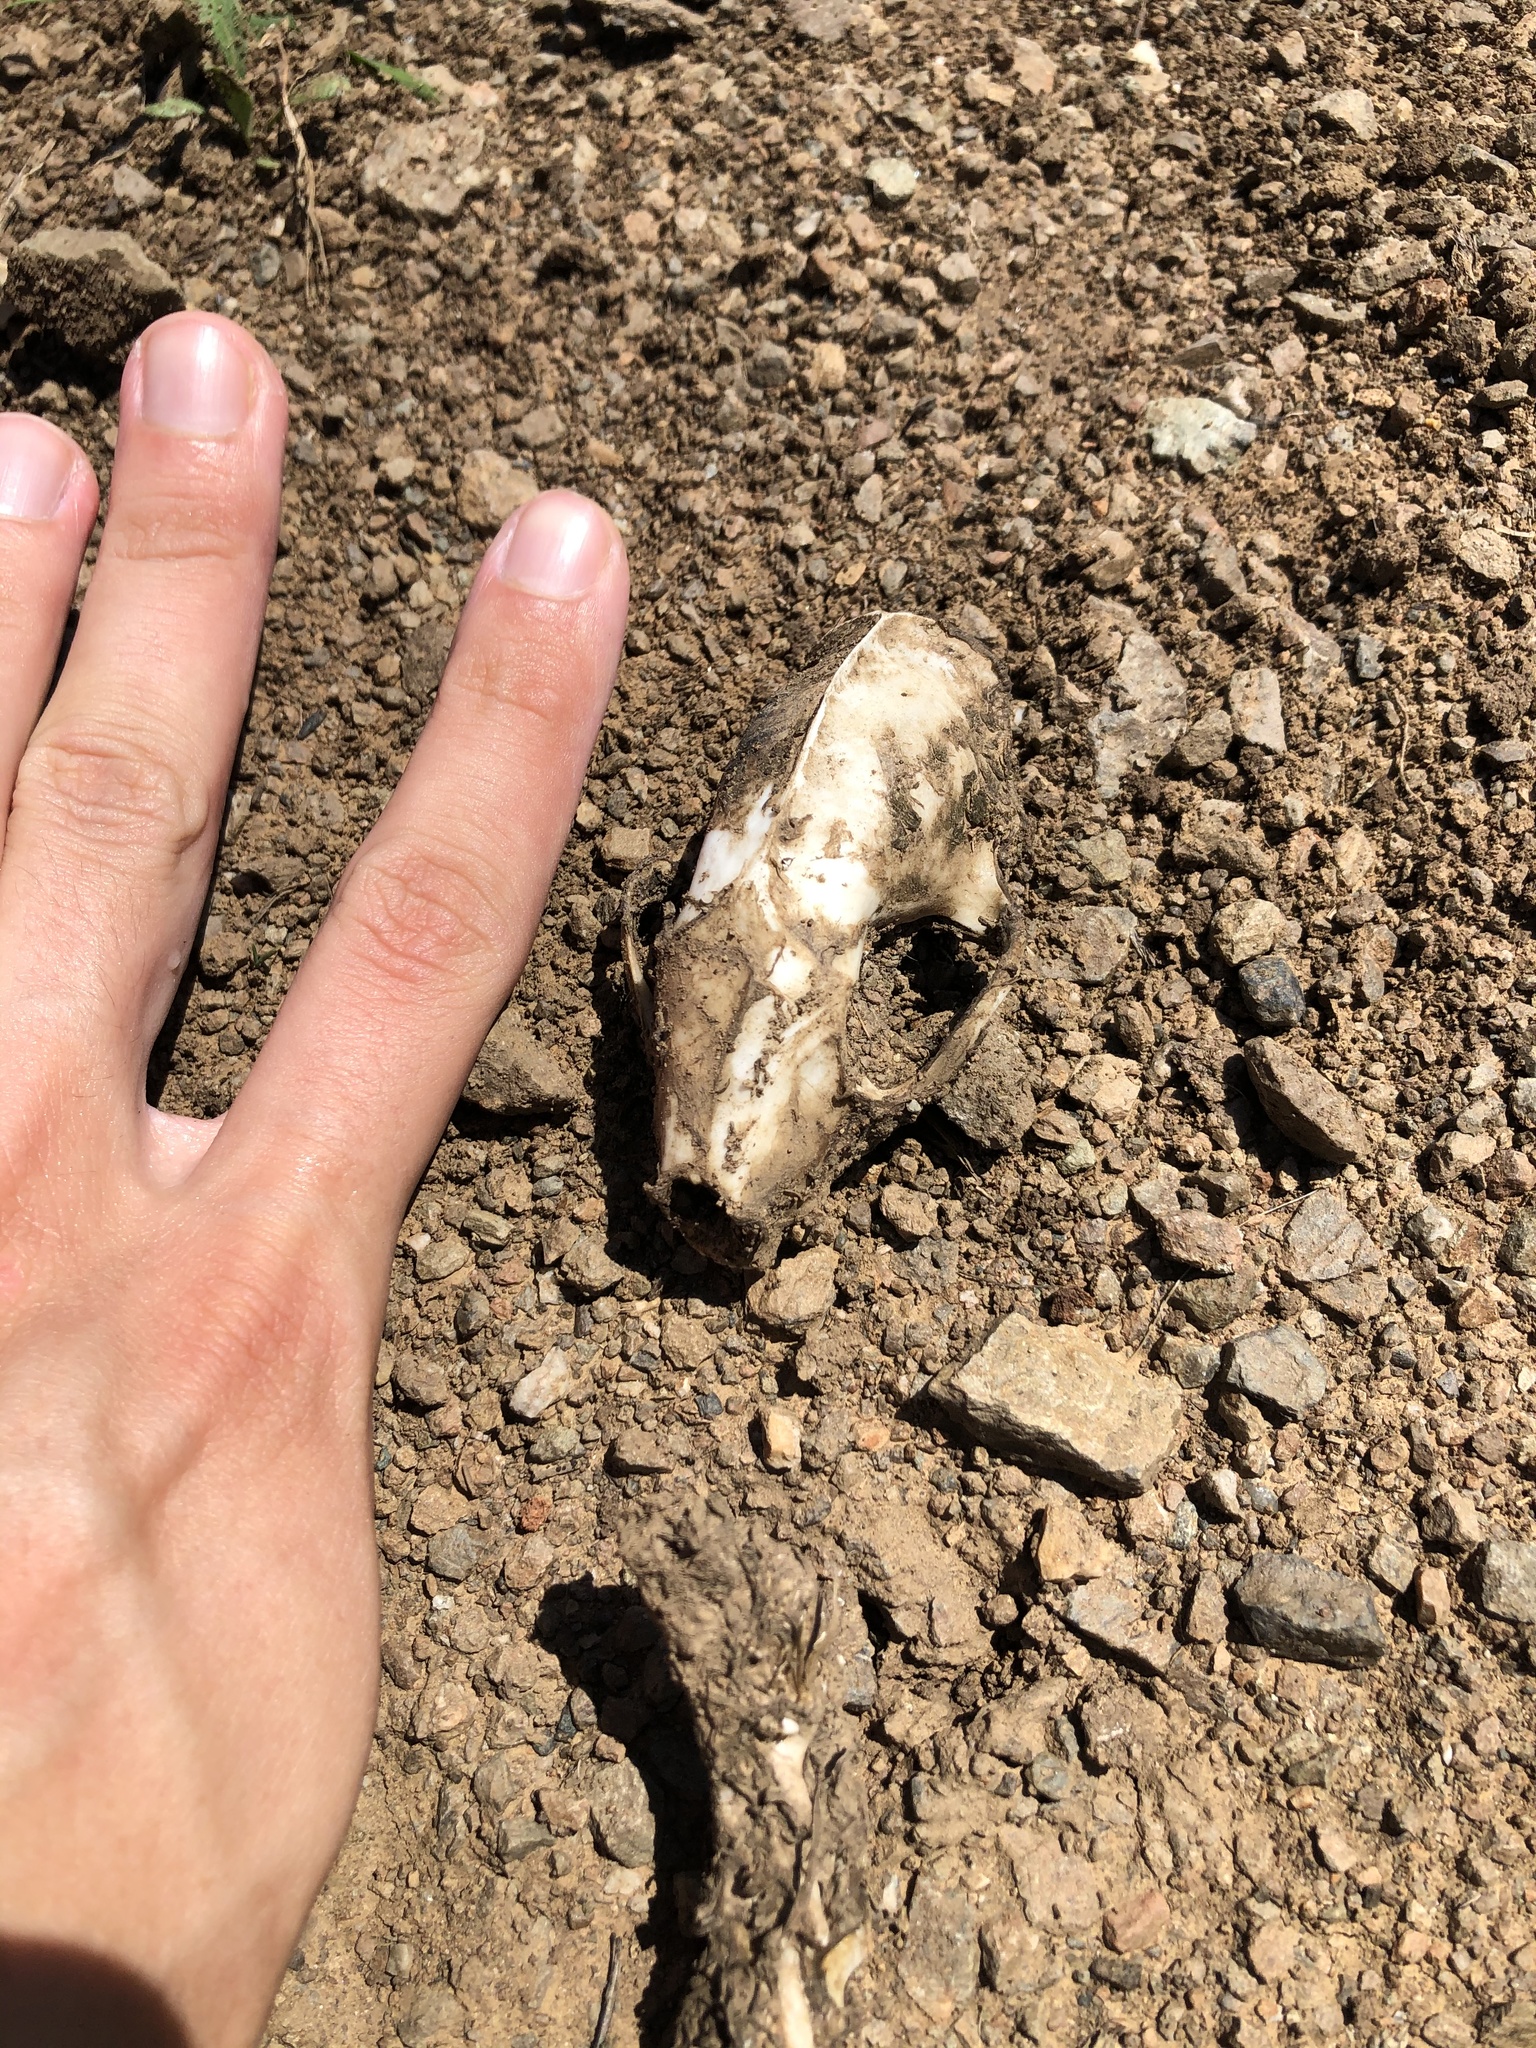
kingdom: Animalia
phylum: Chordata
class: Mammalia
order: Carnivora
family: Mephitidae
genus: Mephitis
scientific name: Mephitis mephitis
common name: Striped skunk
